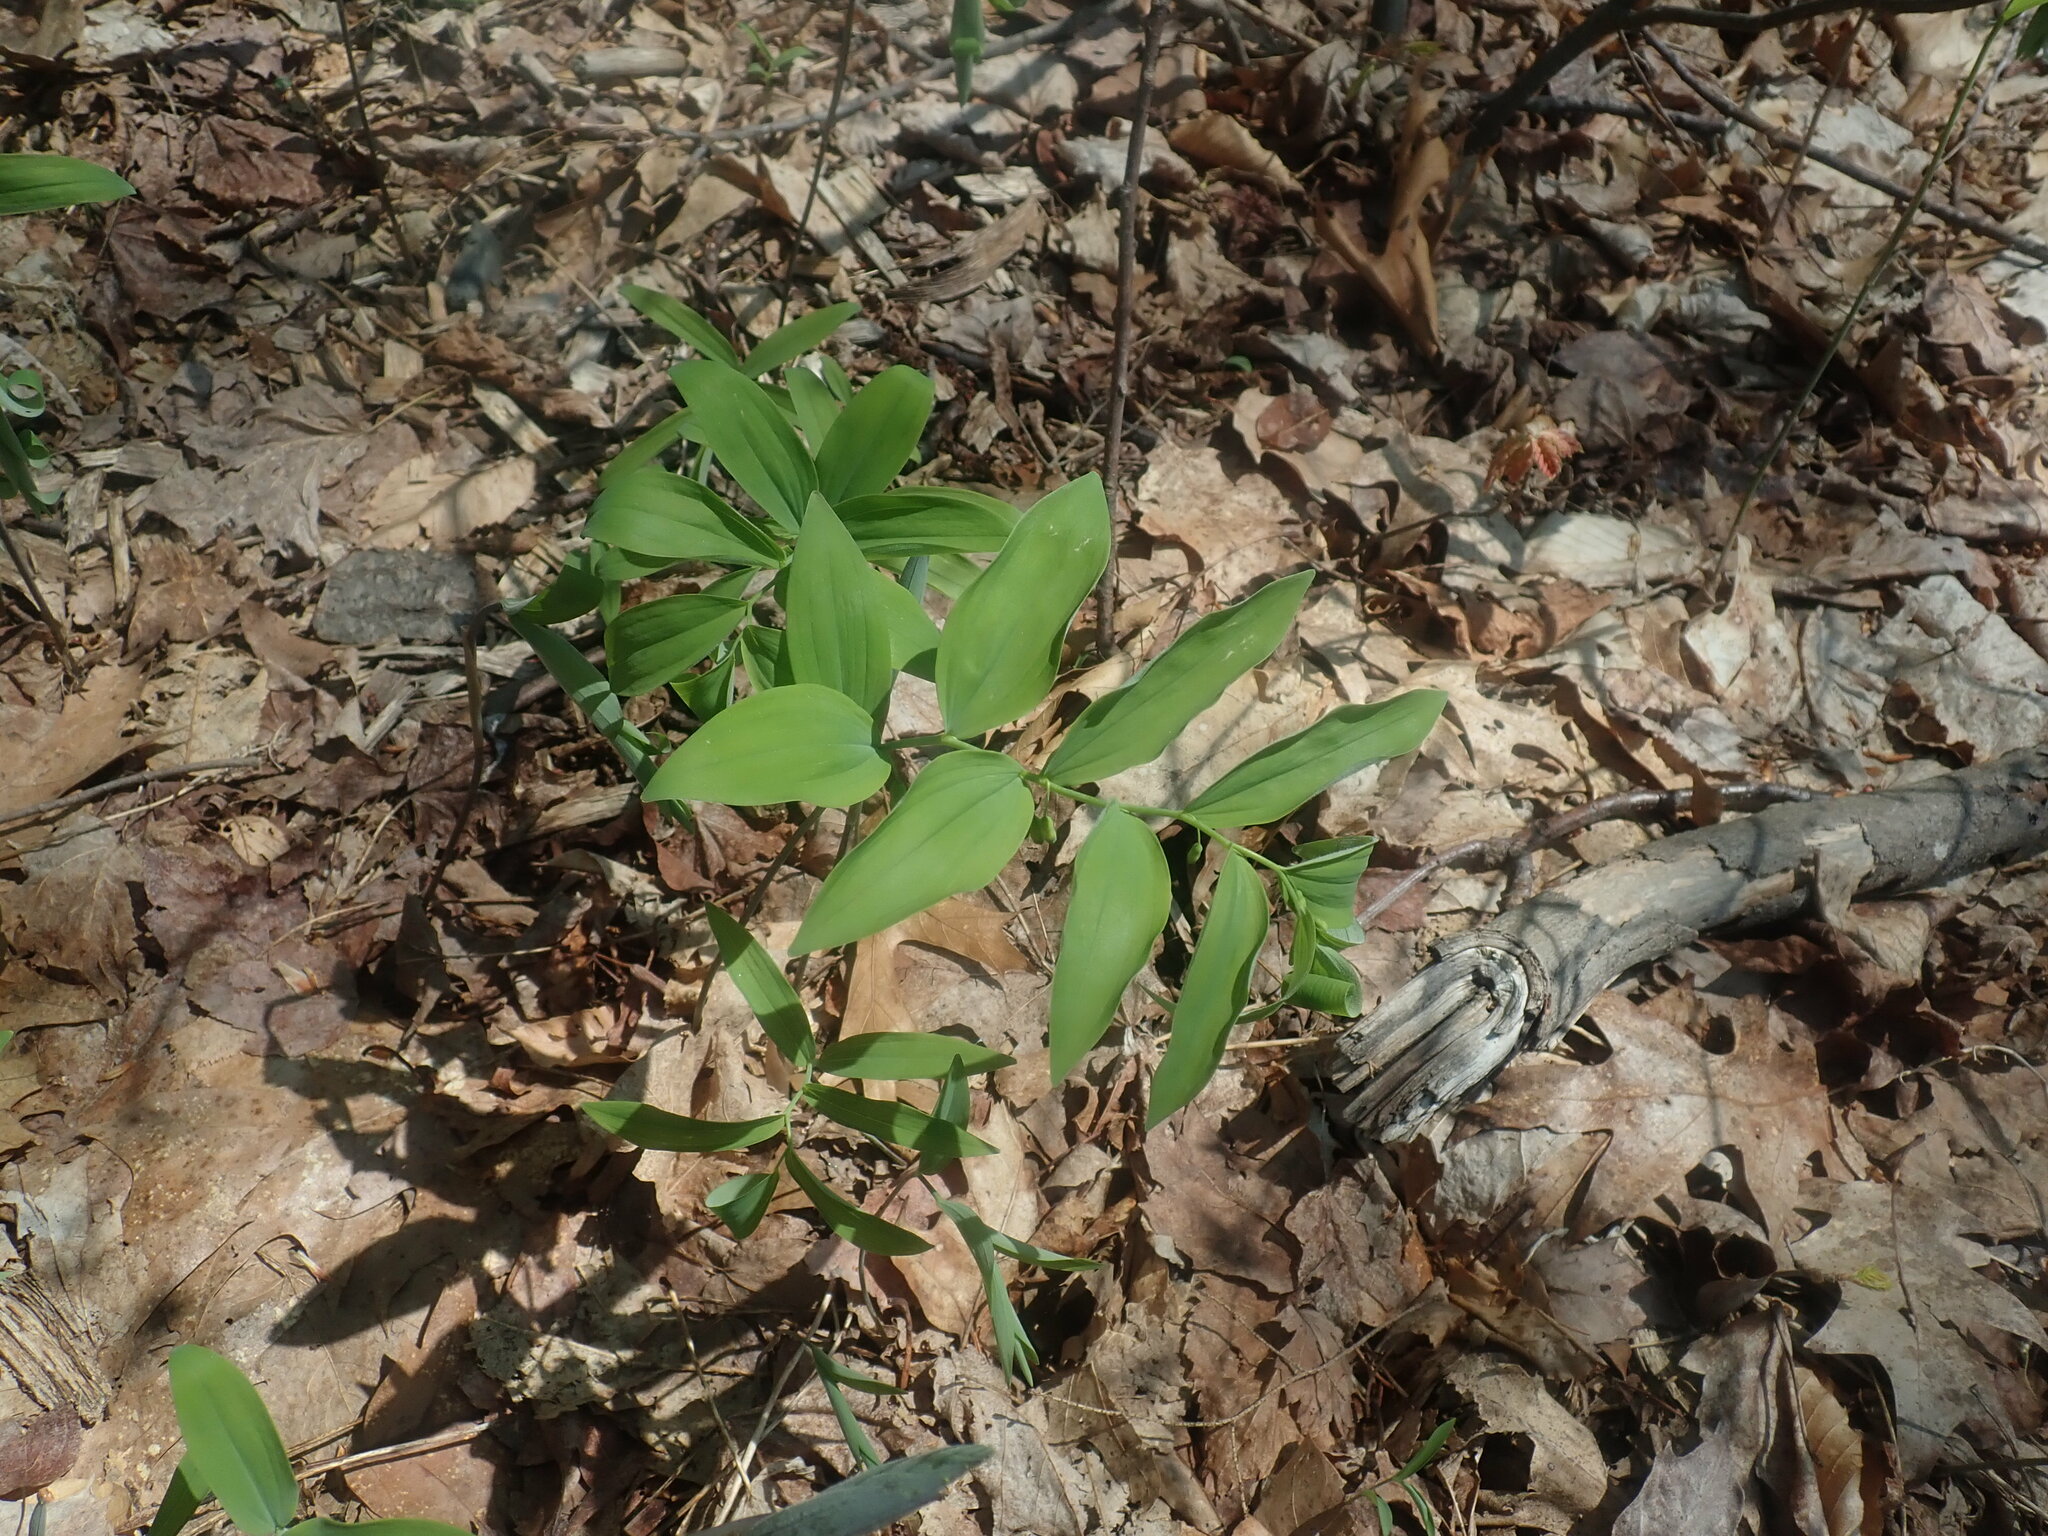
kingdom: Plantae
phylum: Tracheophyta
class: Liliopsida
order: Asparagales
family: Asparagaceae
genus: Polygonatum
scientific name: Polygonatum pubescens
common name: Downy solomon's seal
